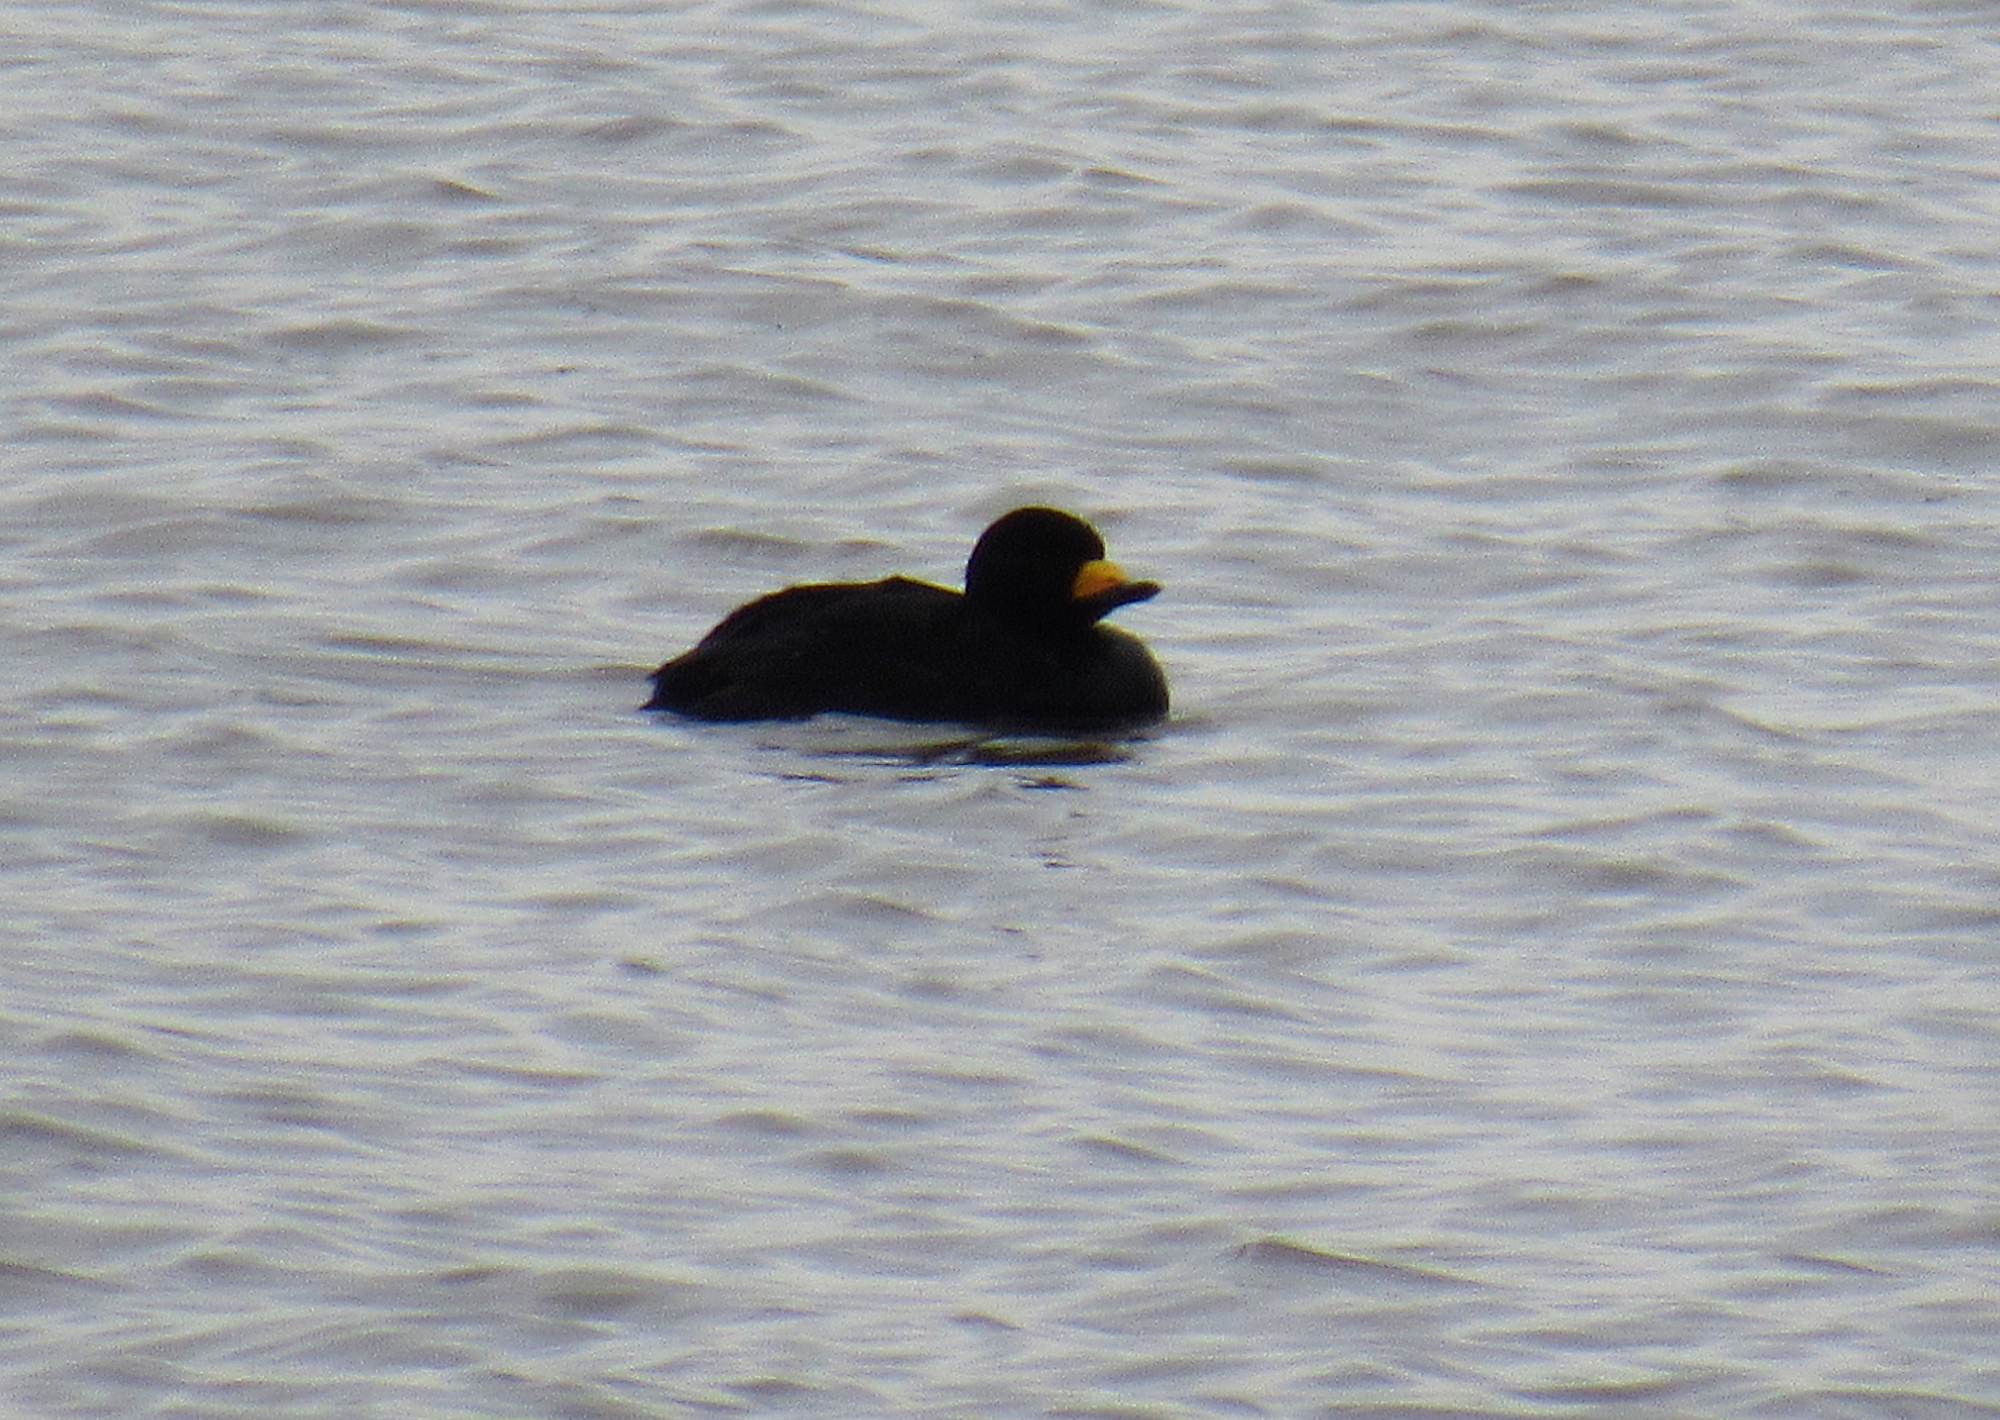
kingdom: Animalia
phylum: Chordata
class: Aves
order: Anseriformes
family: Anatidae
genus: Melanitta
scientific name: Melanitta americana
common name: Black scoter
